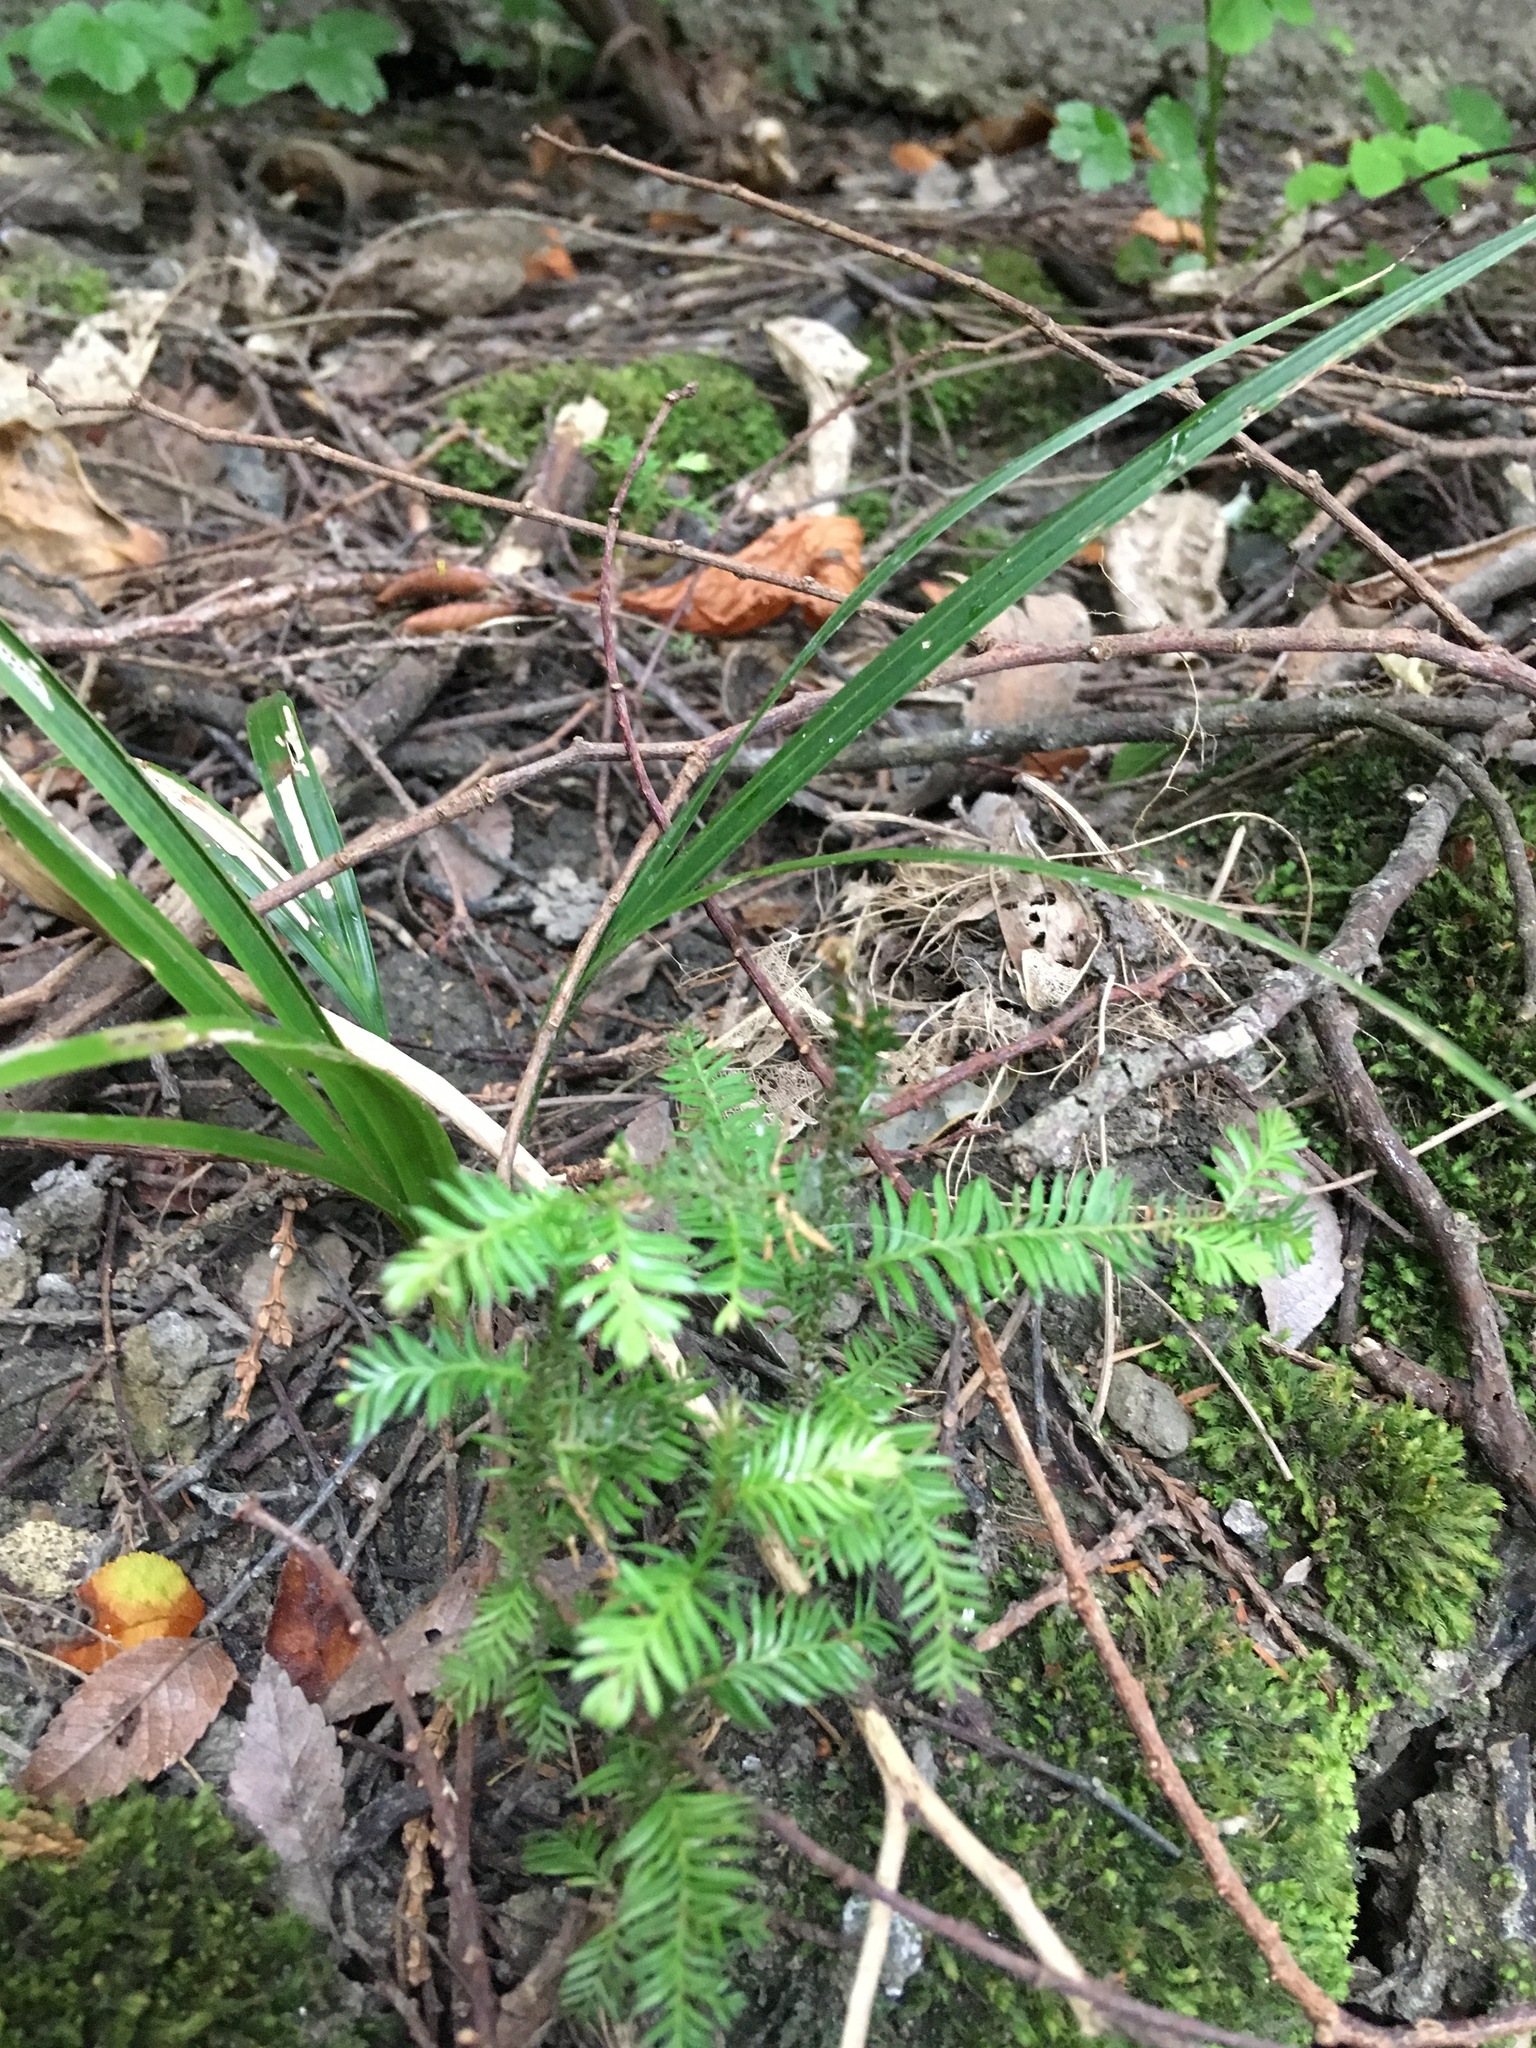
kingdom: Plantae
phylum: Tracheophyta
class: Pinopsida
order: Pinales
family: Podocarpaceae
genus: Dacrycarpus
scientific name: Dacrycarpus dacrydioides
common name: White pine
